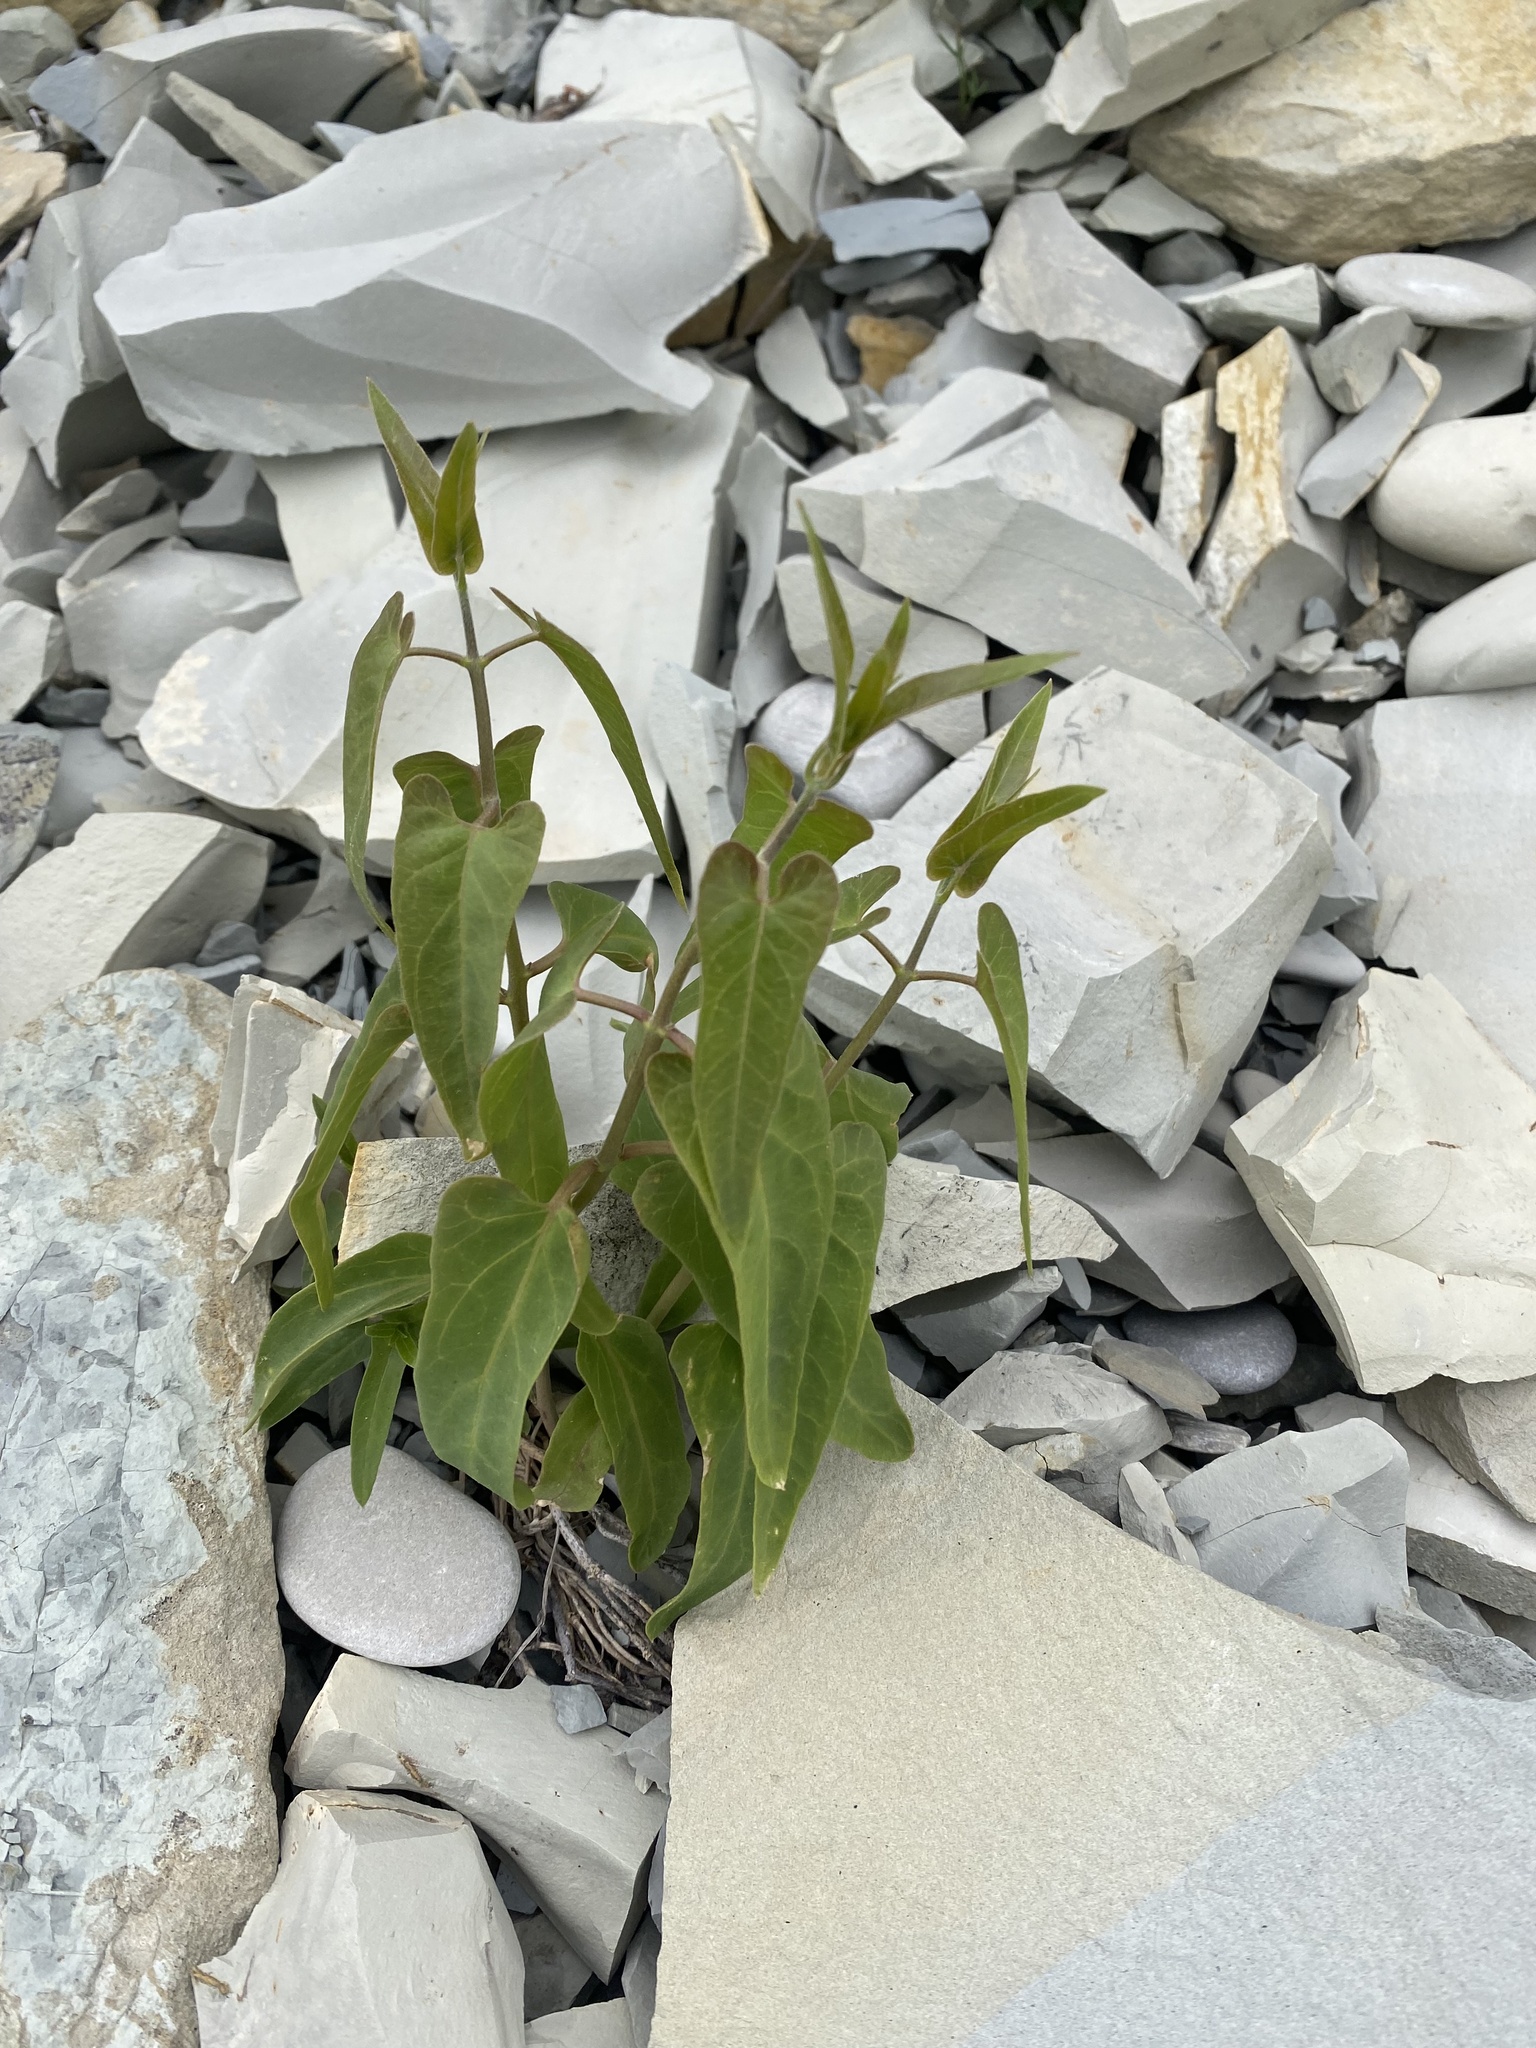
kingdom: Plantae
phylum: Tracheophyta
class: Magnoliopsida
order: Gentianales
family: Apocynaceae
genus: Cynanchum
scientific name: Cynanchum acutum
